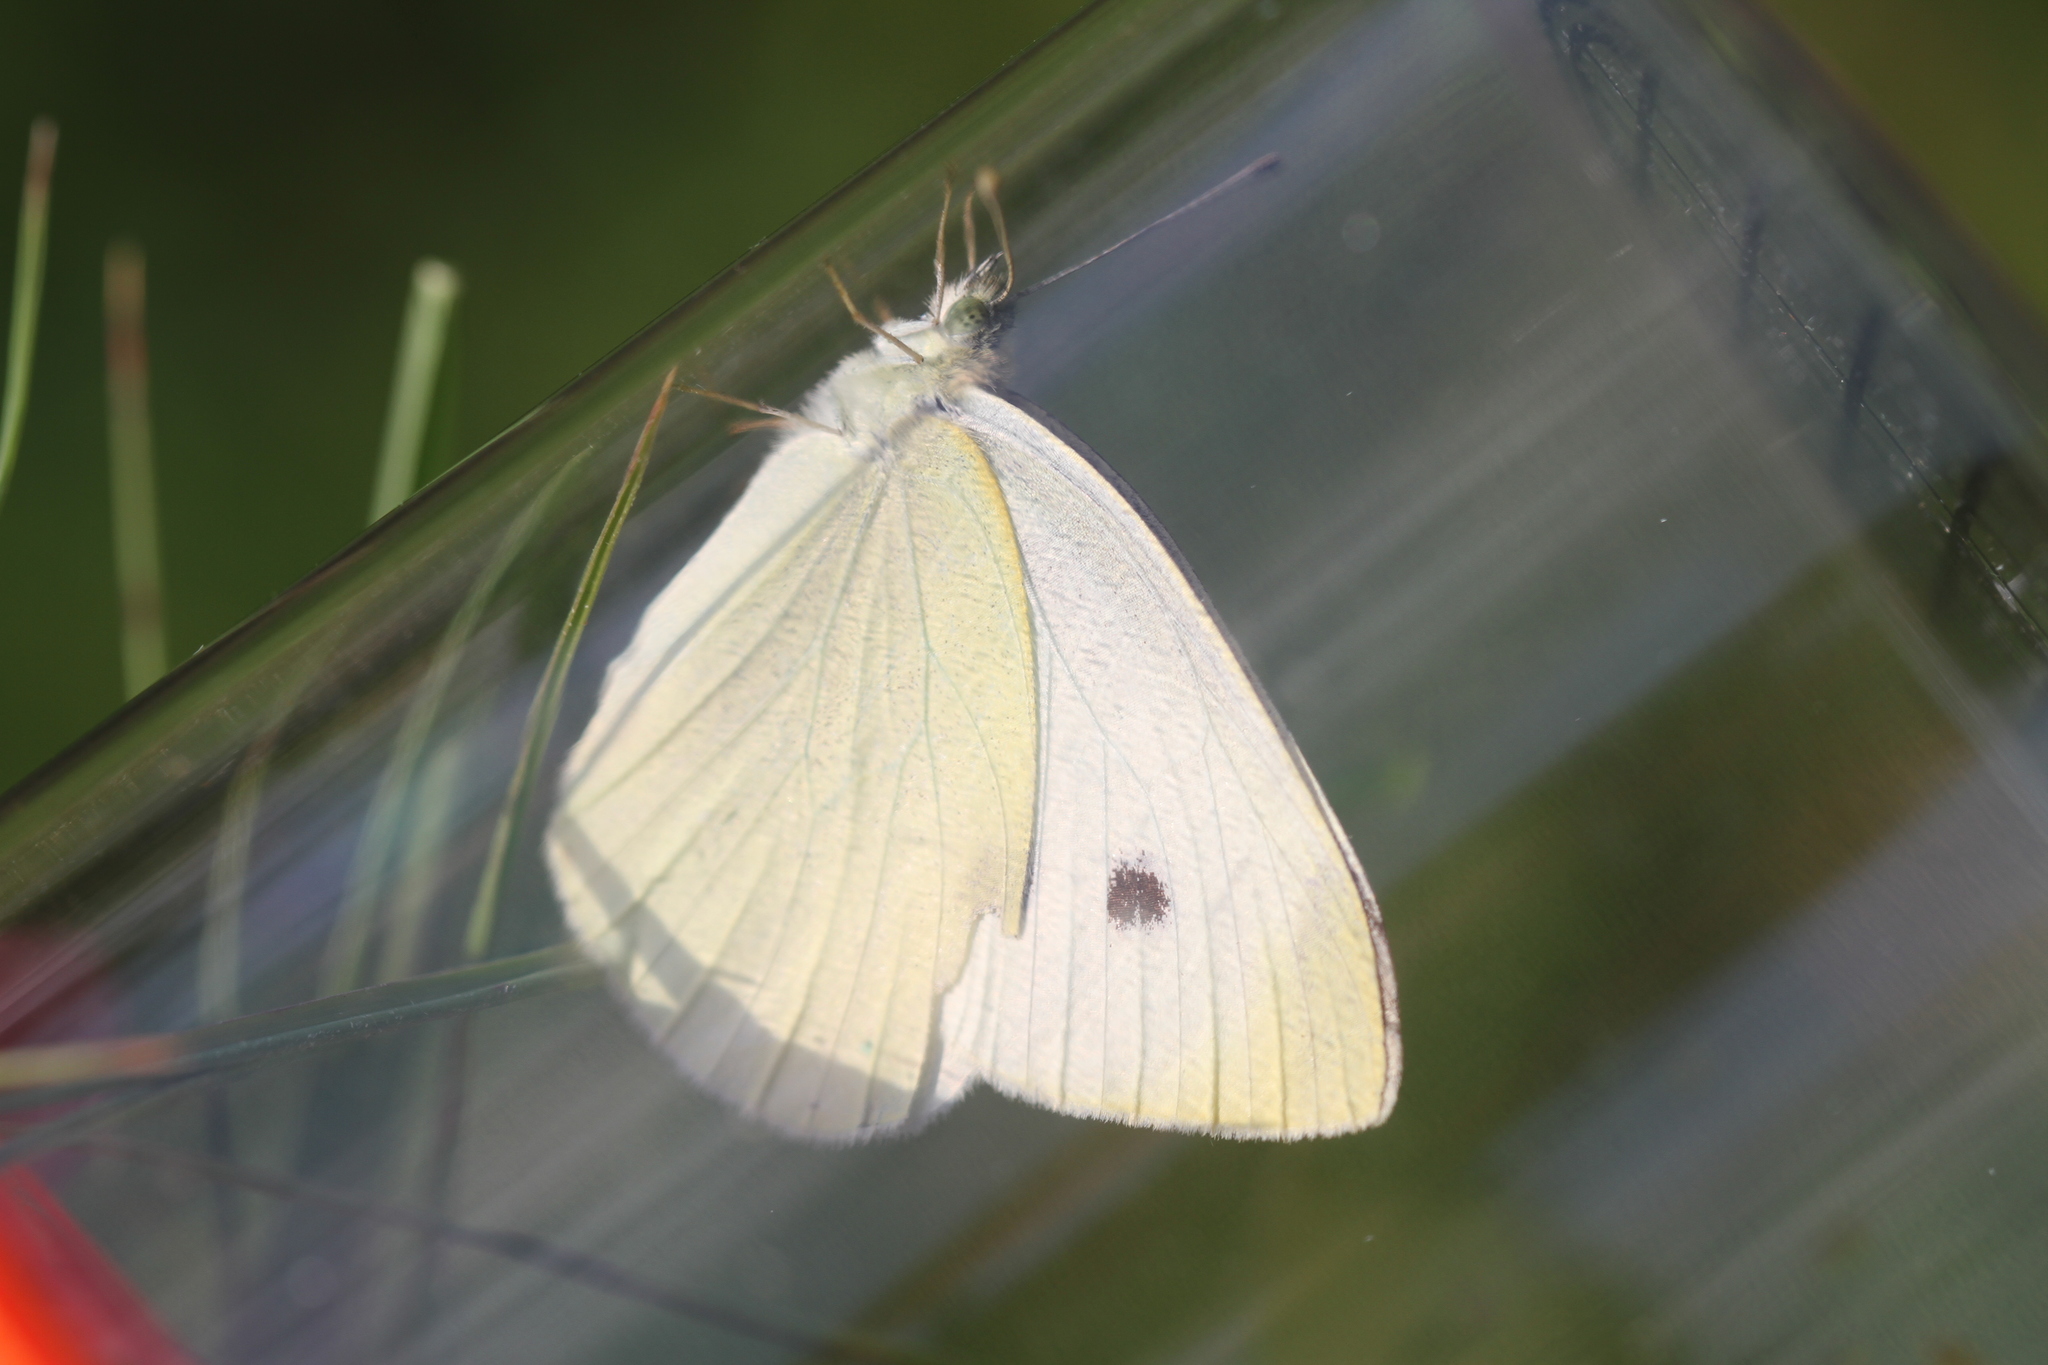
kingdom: Animalia
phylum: Arthropoda
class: Insecta
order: Lepidoptera
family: Pieridae
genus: Pieris
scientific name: Pieris rapae
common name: Small white
